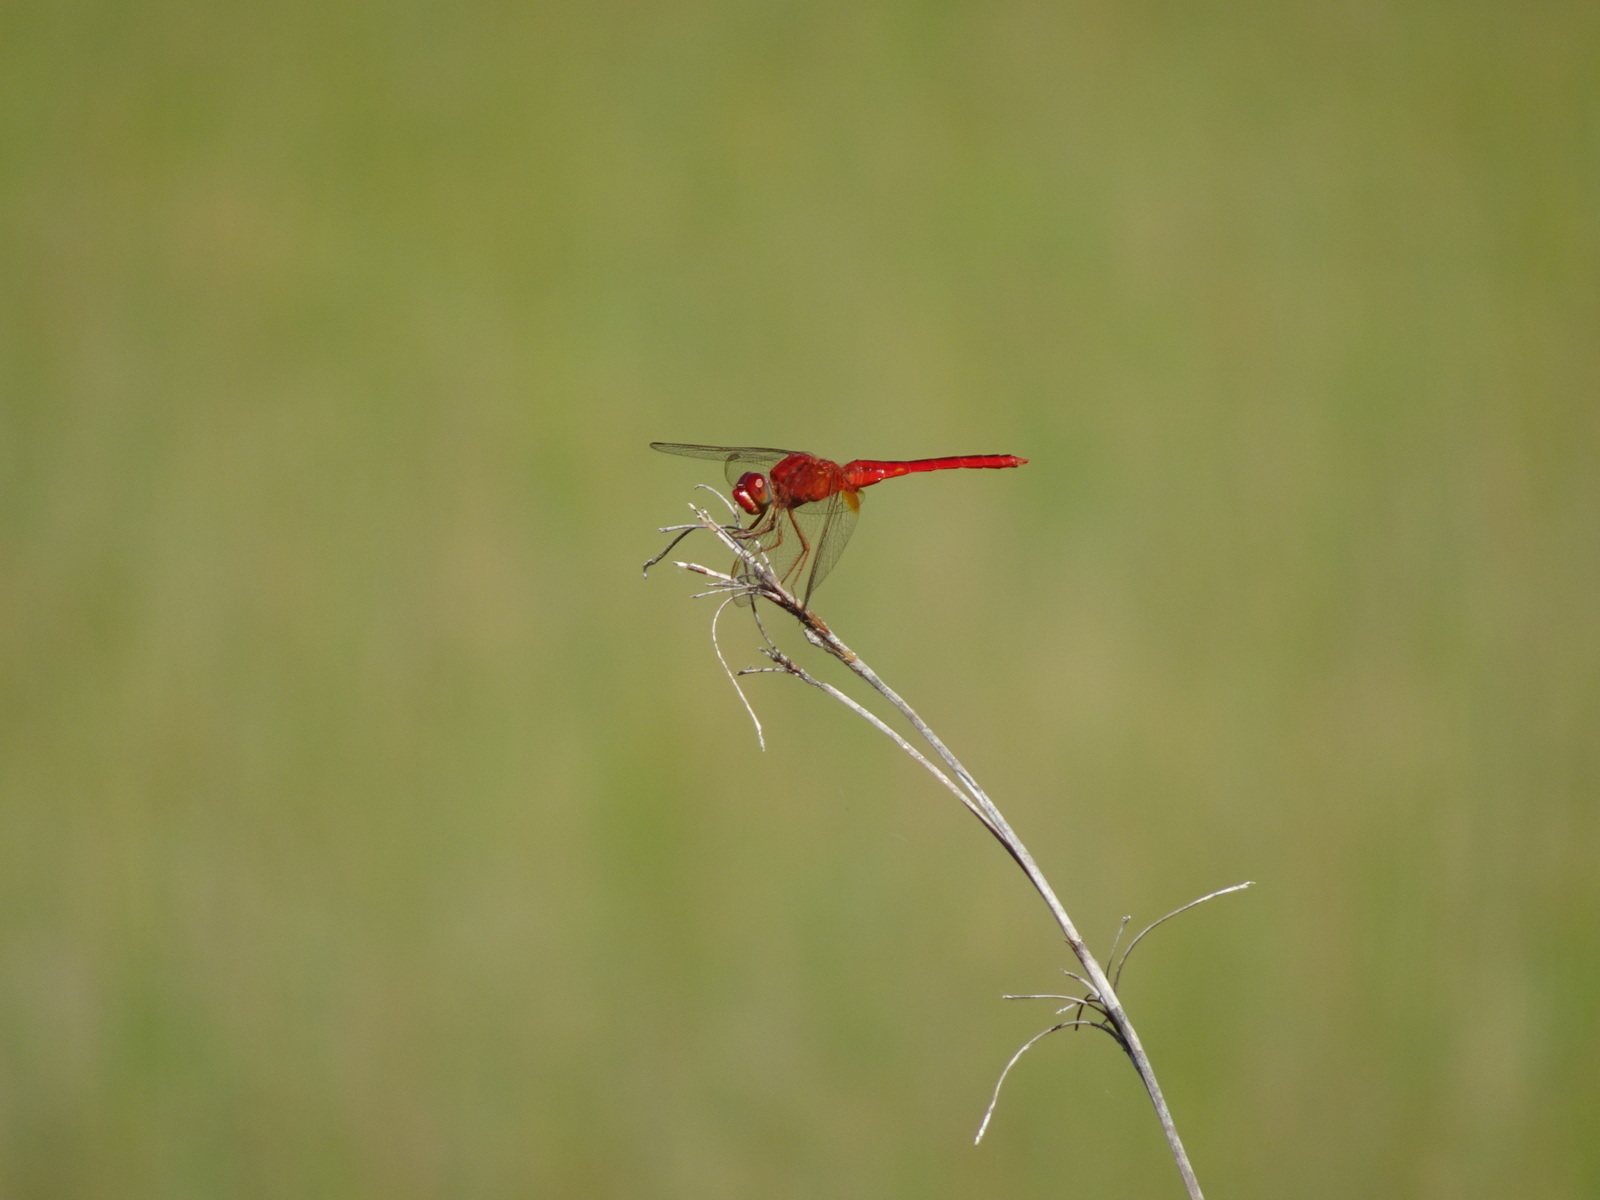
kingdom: Animalia
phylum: Arthropoda
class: Insecta
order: Odonata
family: Libellulidae
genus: Crocothemis
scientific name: Crocothemis servilia
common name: Scarlet skimmer
